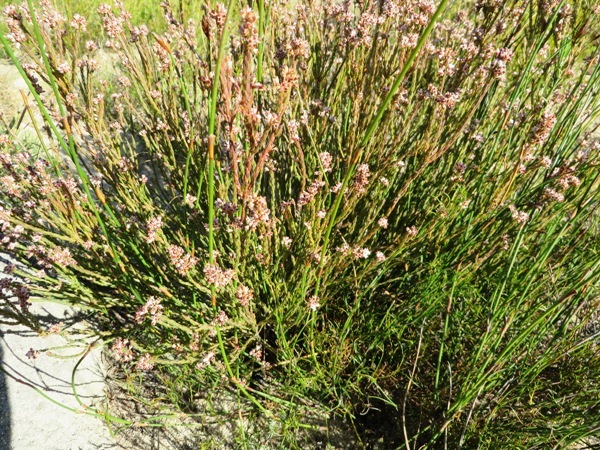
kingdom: Plantae
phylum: Tracheophyta
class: Magnoliopsida
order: Ericales
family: Ericaceae
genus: Erica
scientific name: Erica articularis
